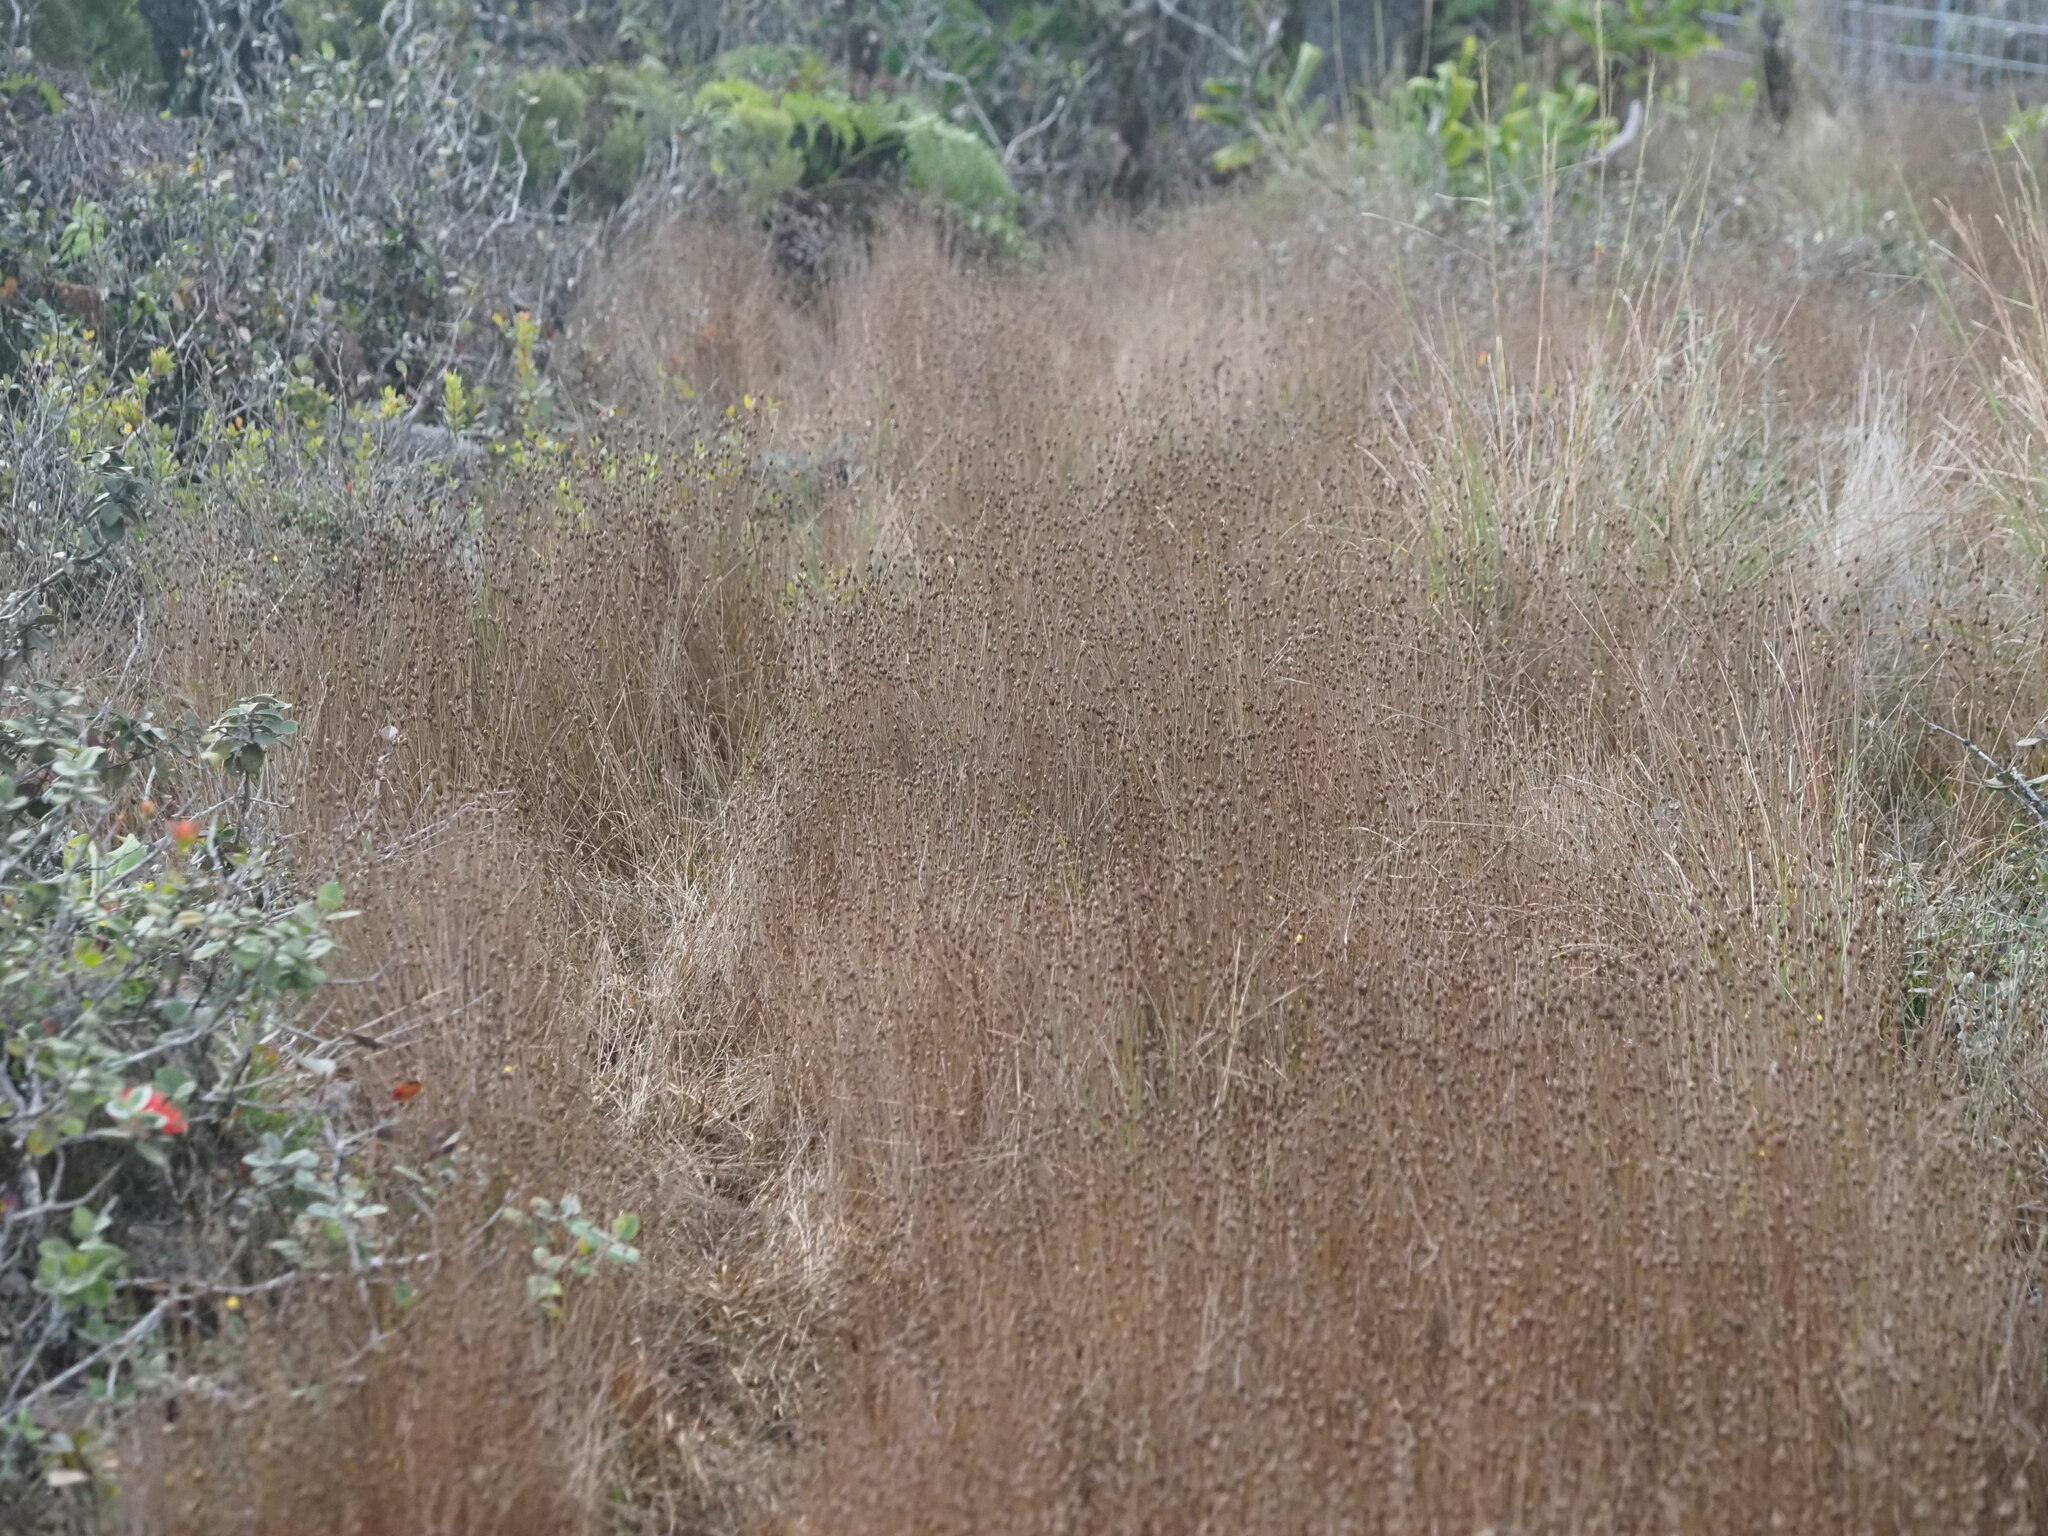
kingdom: Plantae
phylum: Tracheophyta
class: Liliopsida
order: Poales
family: Xyridaceae
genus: Xyris
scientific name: Xyris complanata
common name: Hawai'i yelloweyed grass
